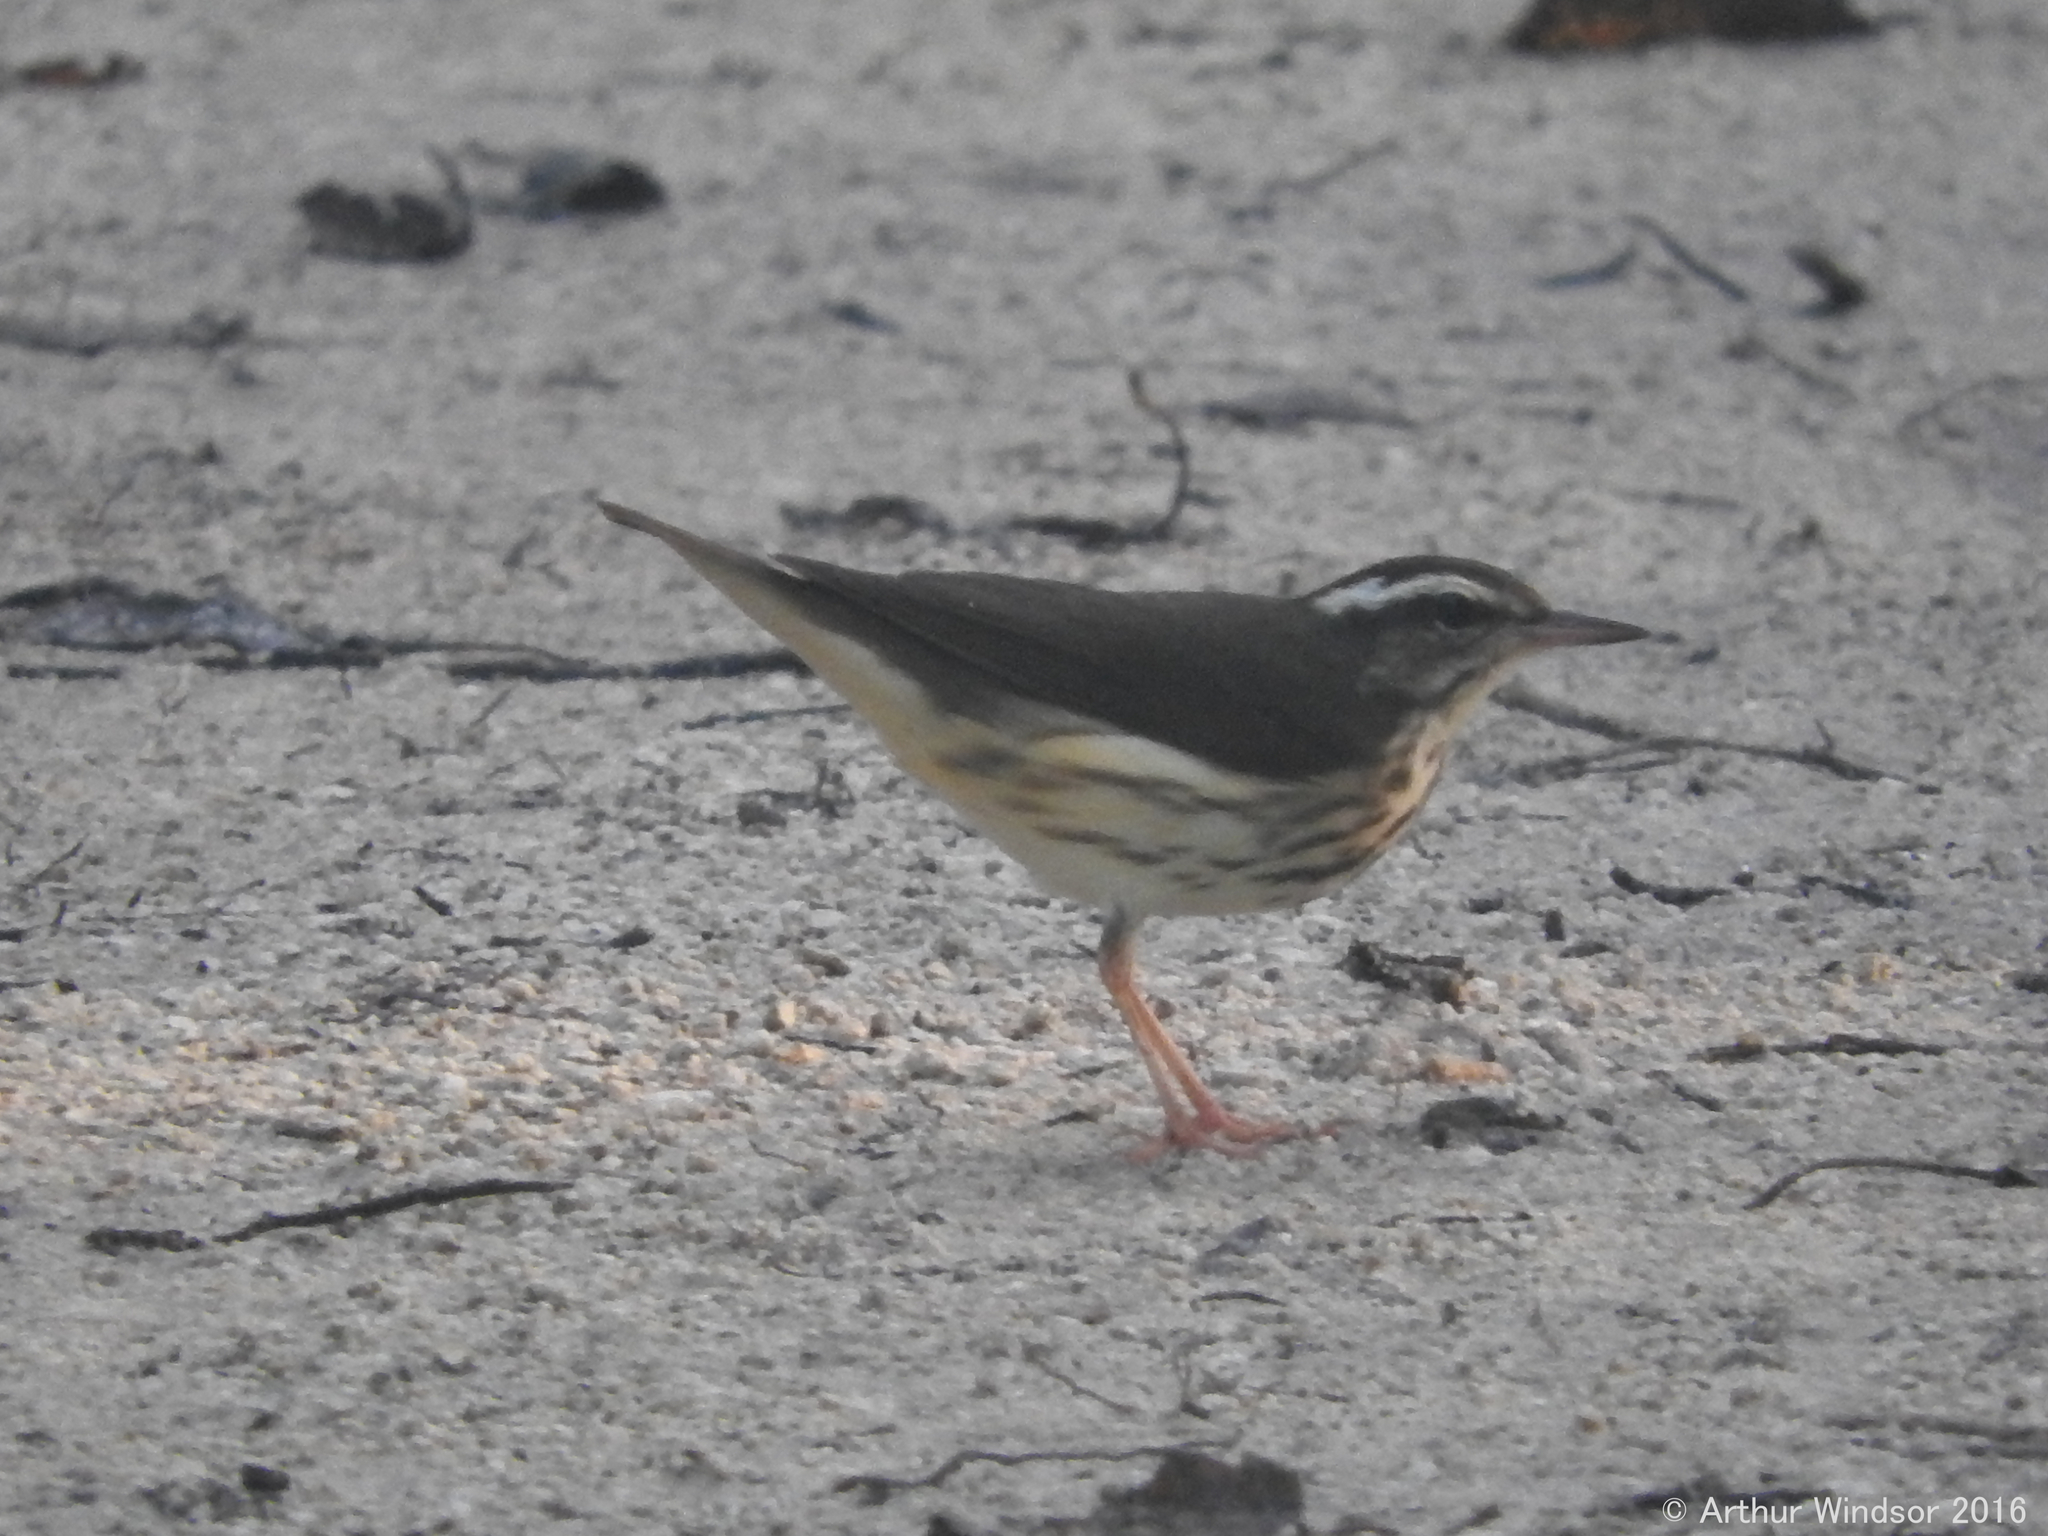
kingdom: Animalia
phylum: Chordata
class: Aves
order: Passeriformes
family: Parulidae
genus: Parkesia
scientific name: Parkesia motacilla
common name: Louisiana waterthrush
